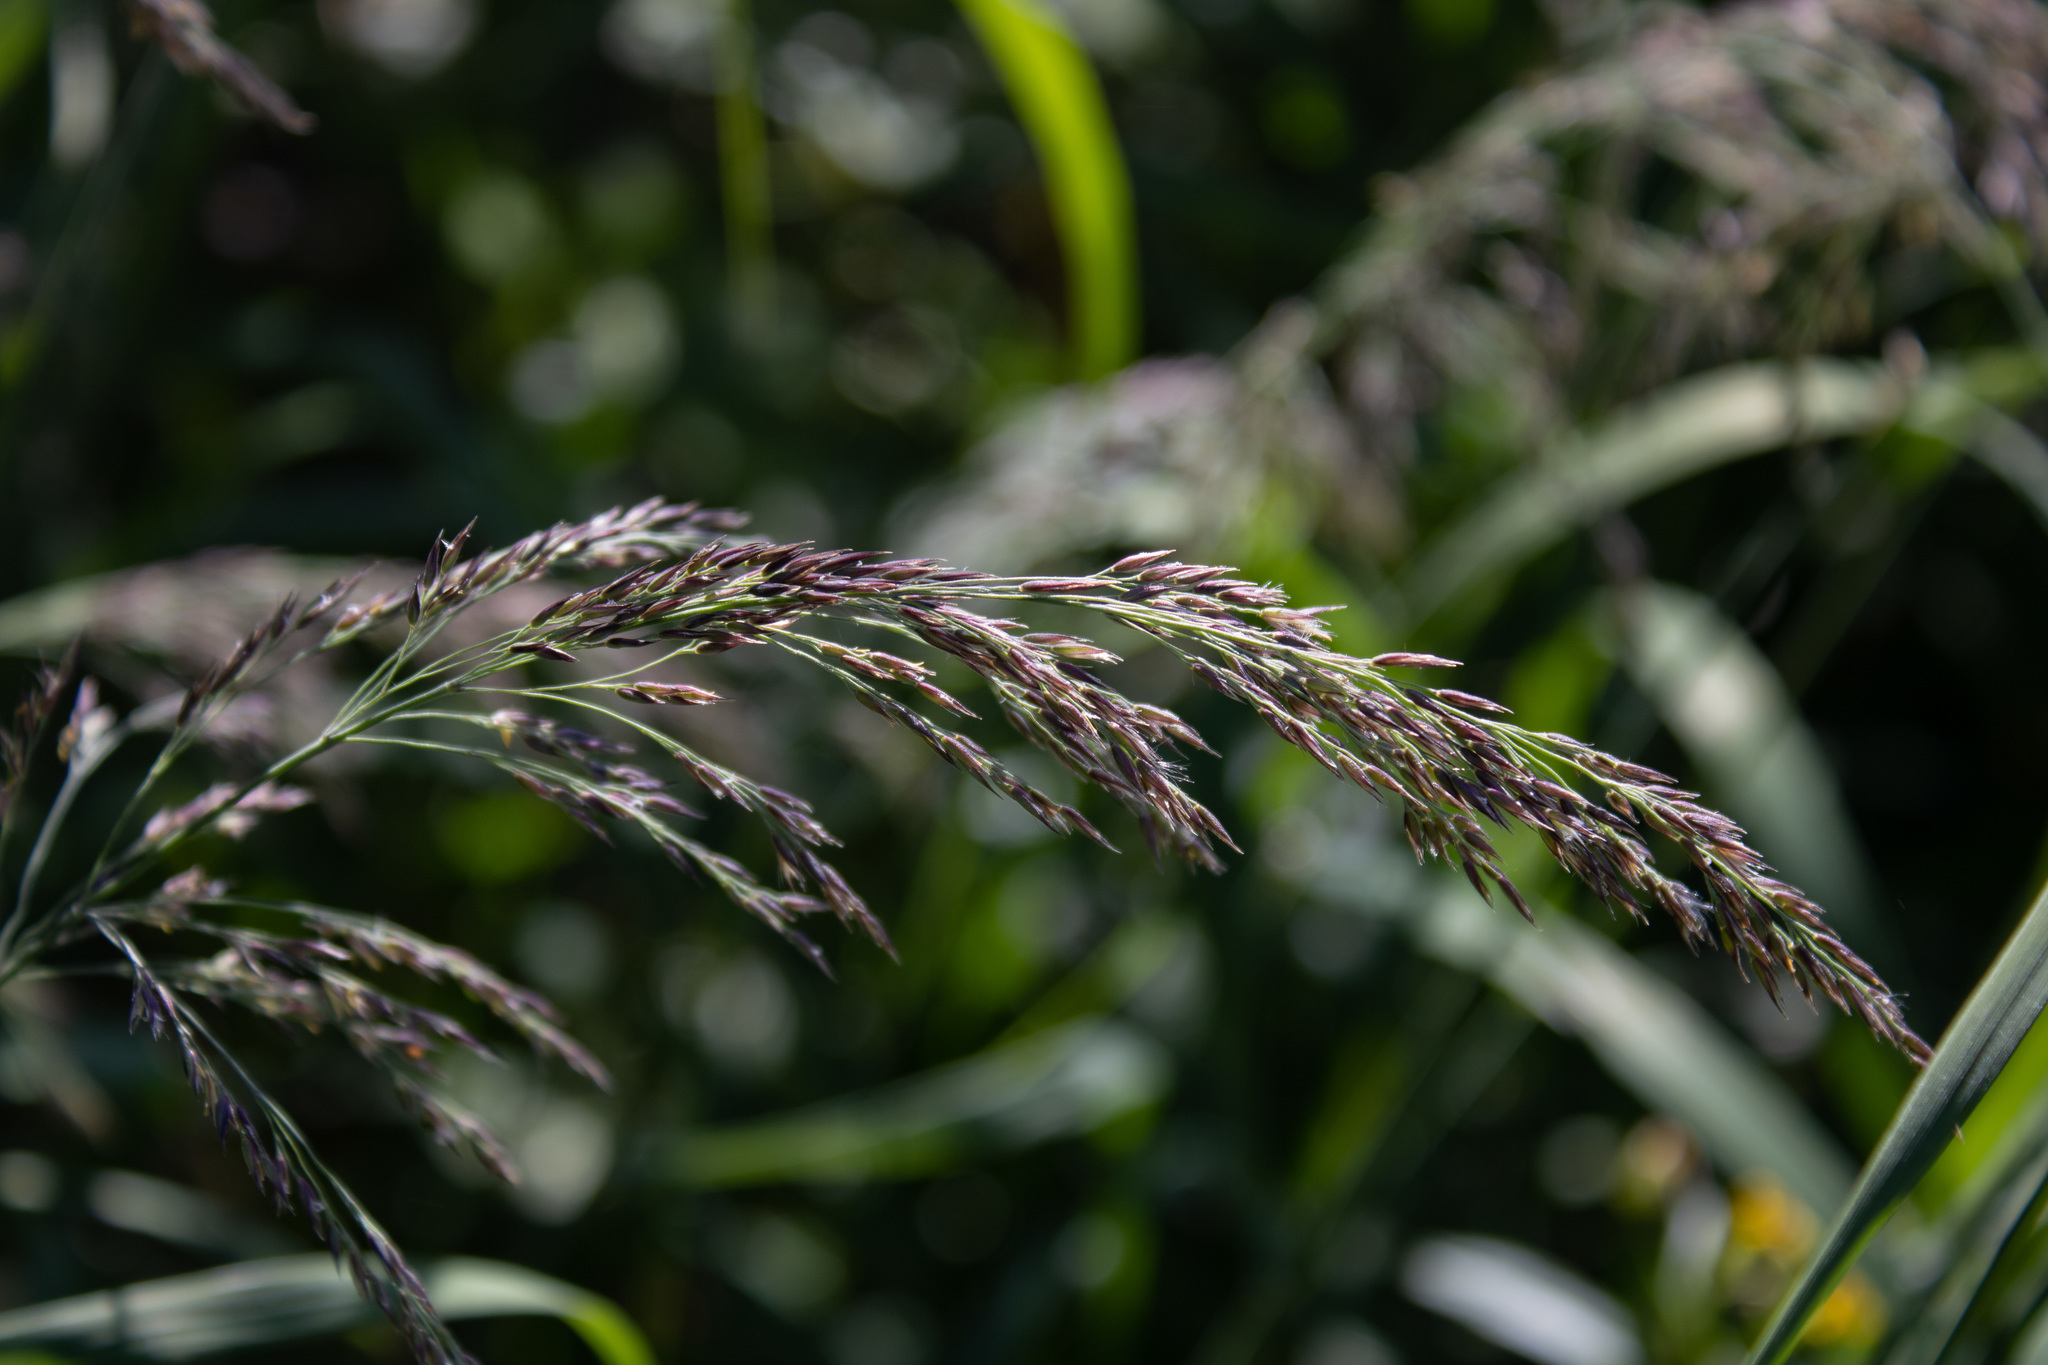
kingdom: Plantae
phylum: Tracheophyta
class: Liliopsida
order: Poales
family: Poaceae
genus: Calamagrostis
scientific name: Calamagrostis canadensis
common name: Canada bluejoint
